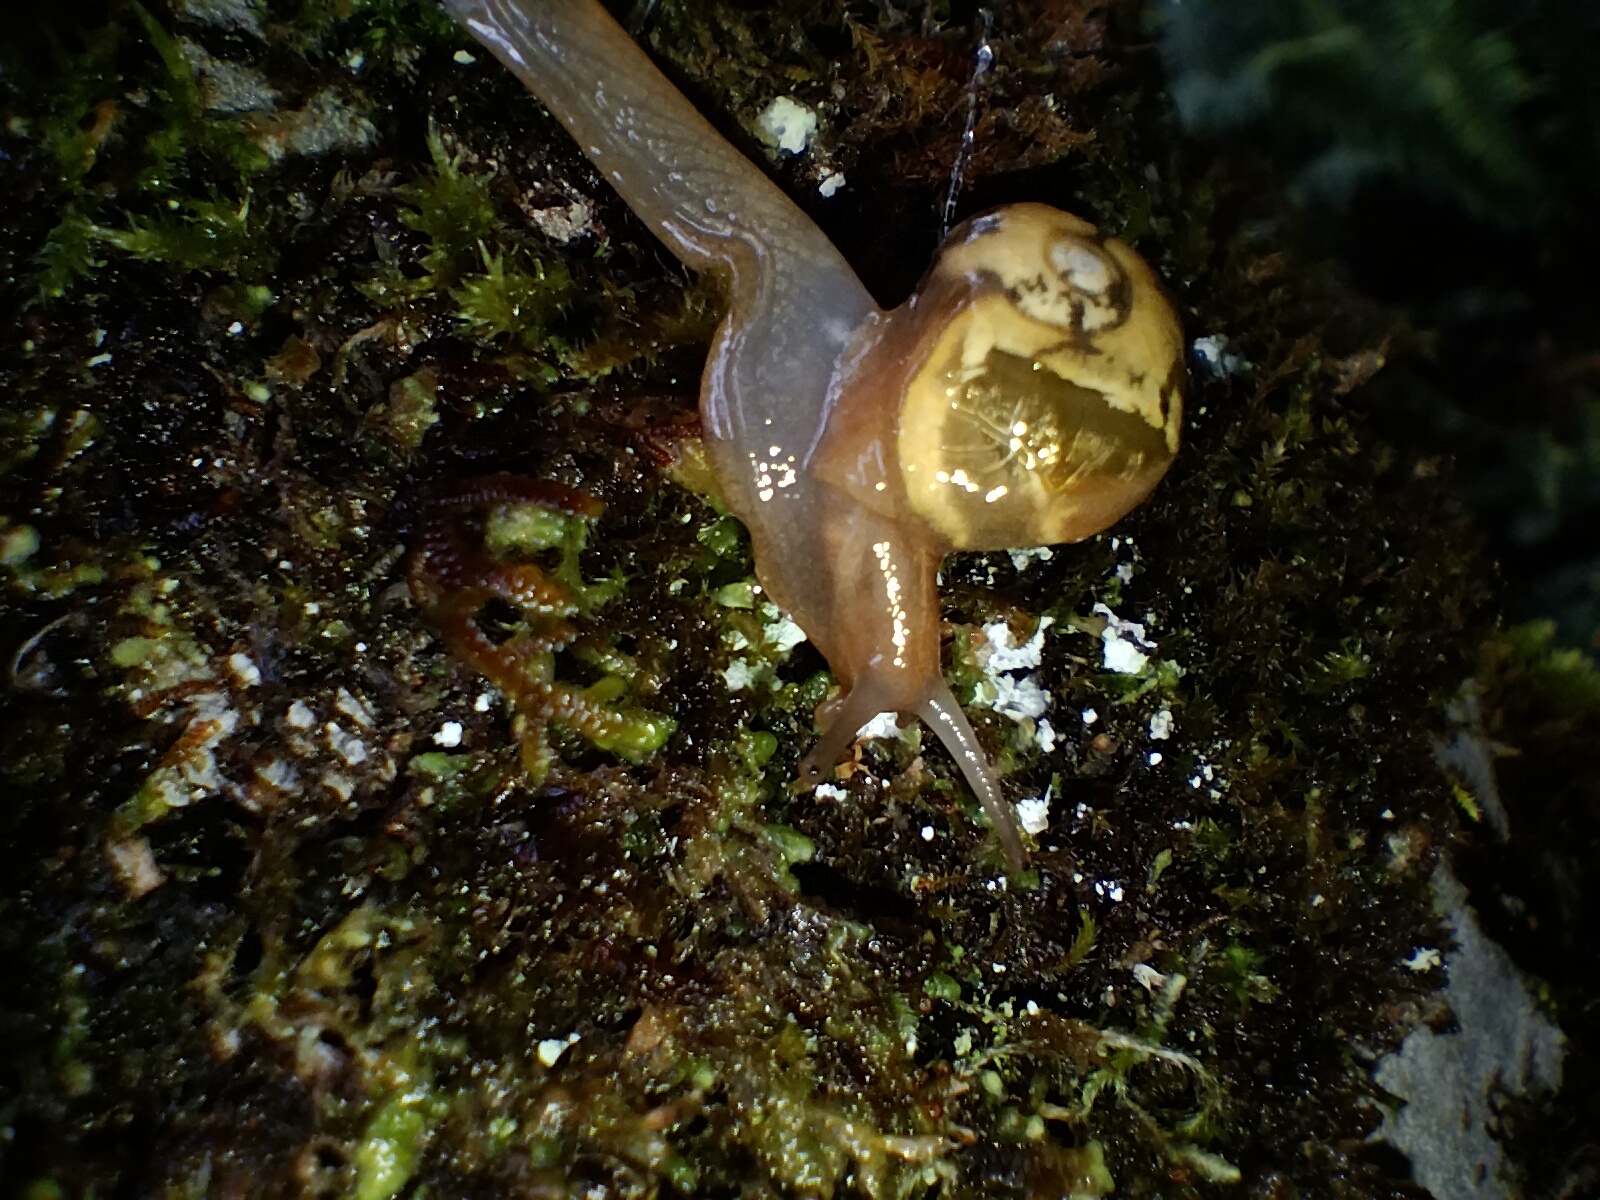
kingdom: Animalia
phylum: Mollusca
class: Gastropoda
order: Stylommatophora
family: Helicarionidae
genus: Mysticarion
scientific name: Mysticarion porrectus
